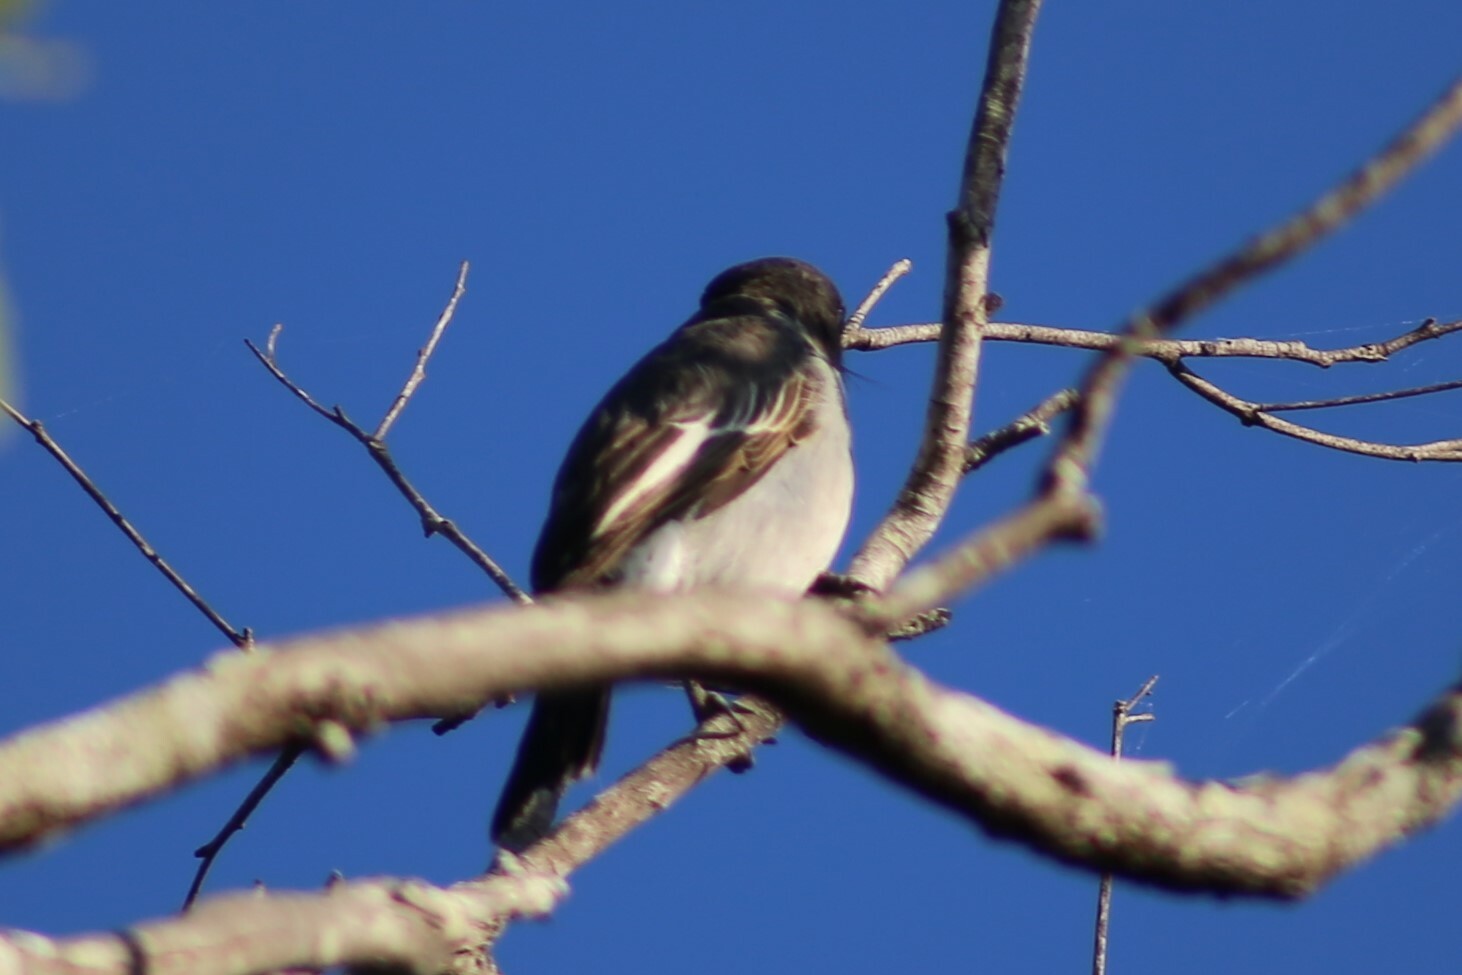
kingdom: Animalia
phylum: Chordata
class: Aves
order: Passeriformes
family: Cracticidae
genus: Cracticus
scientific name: Cracticus torquatus
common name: Grey butcherbird
